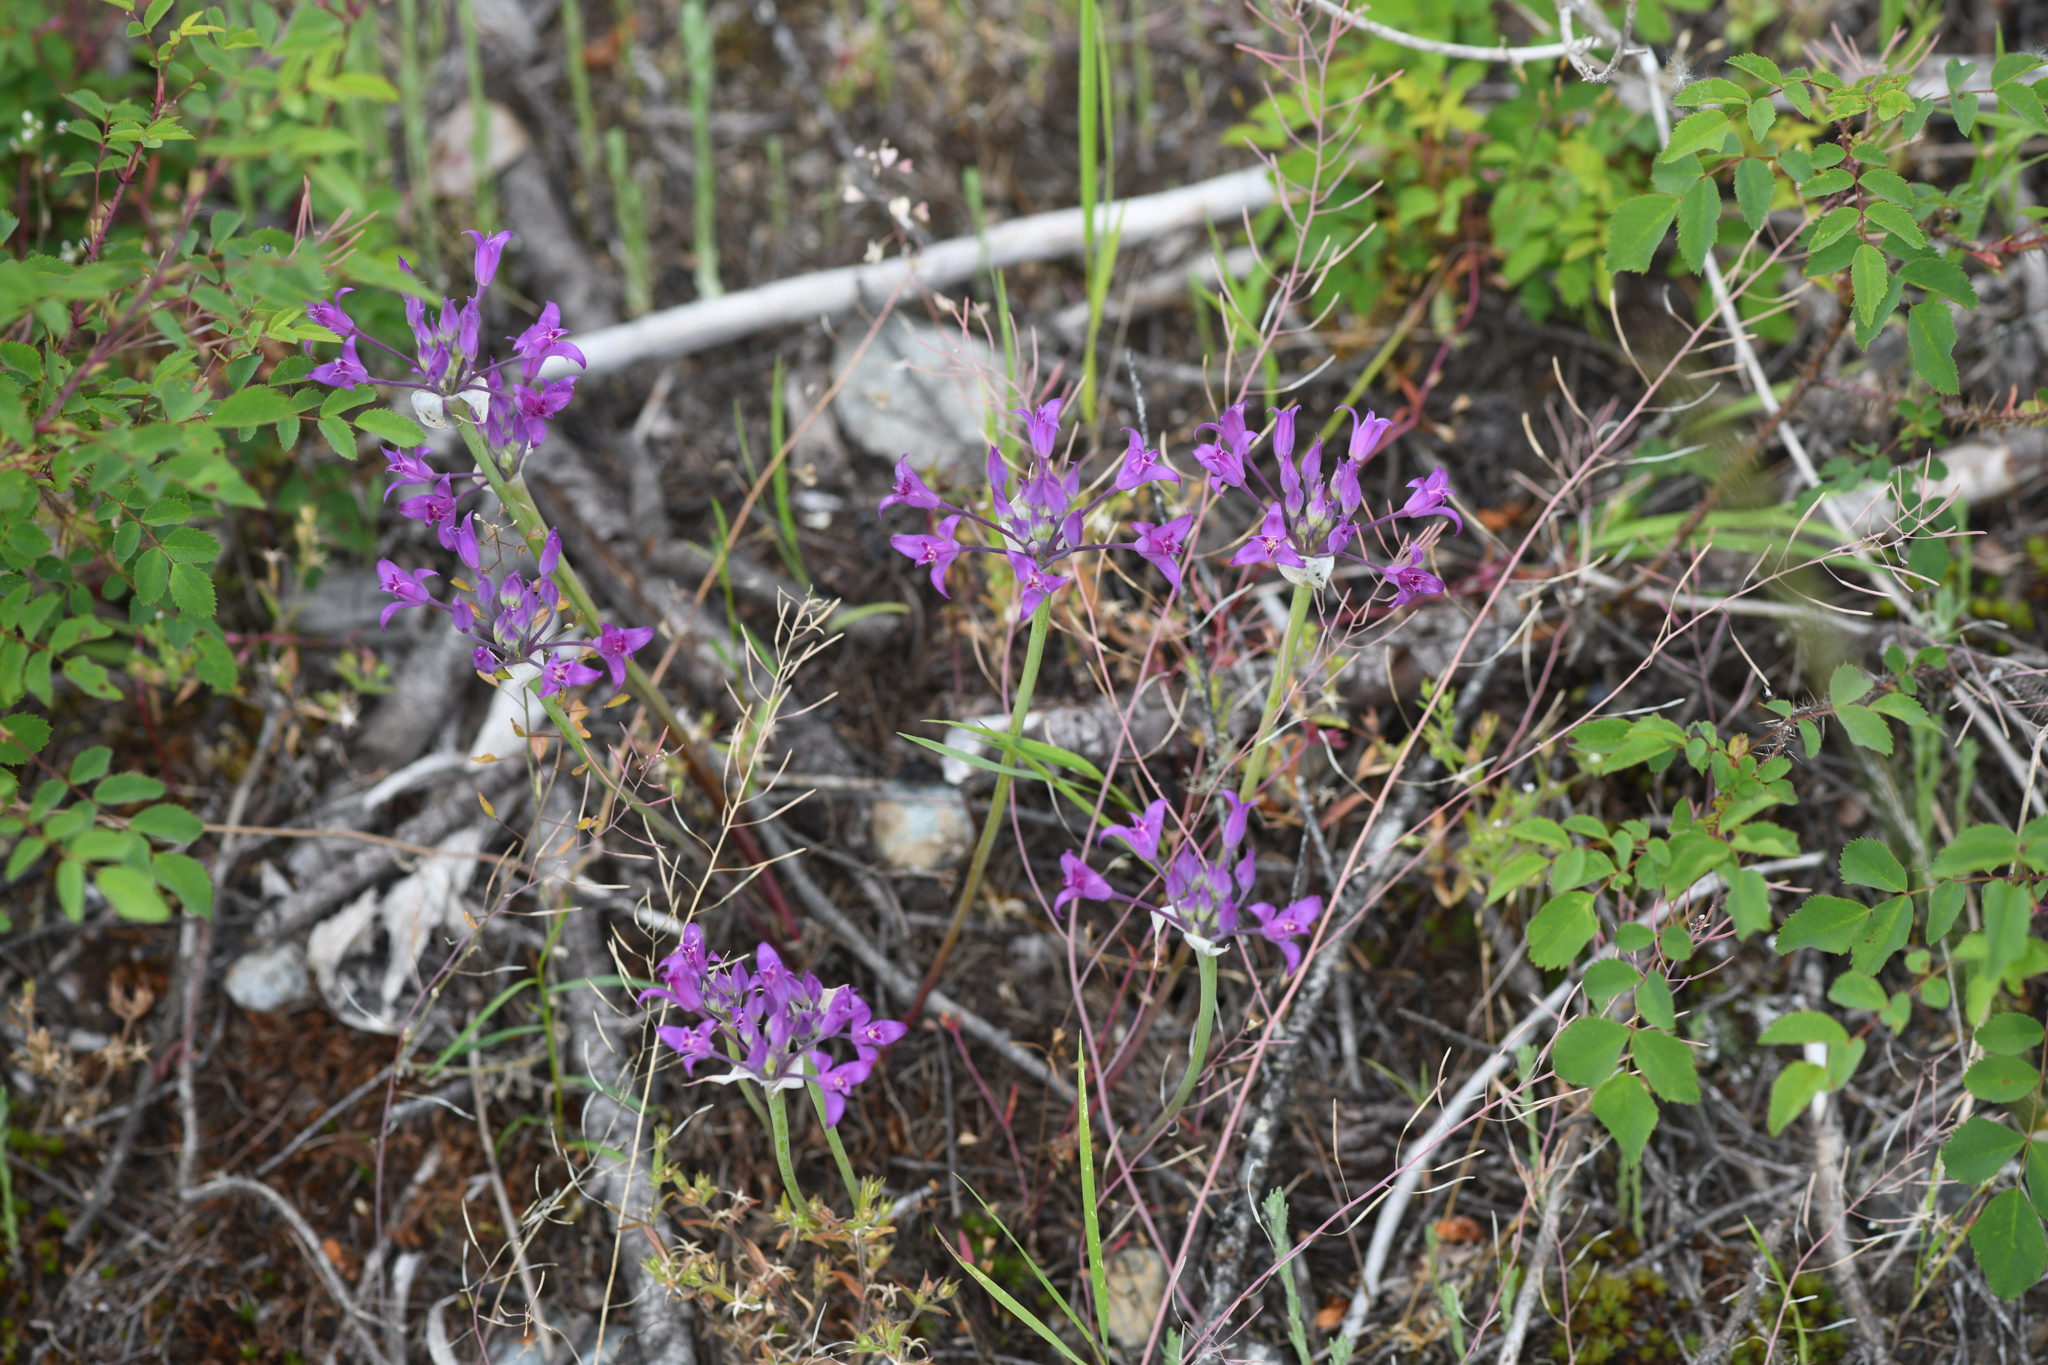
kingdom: Plantae
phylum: Tracheophyta
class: Liliopsida
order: Asparagales
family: Amaryllidaceae
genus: Allium
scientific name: Allium acuminatum
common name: Hooker's onion
